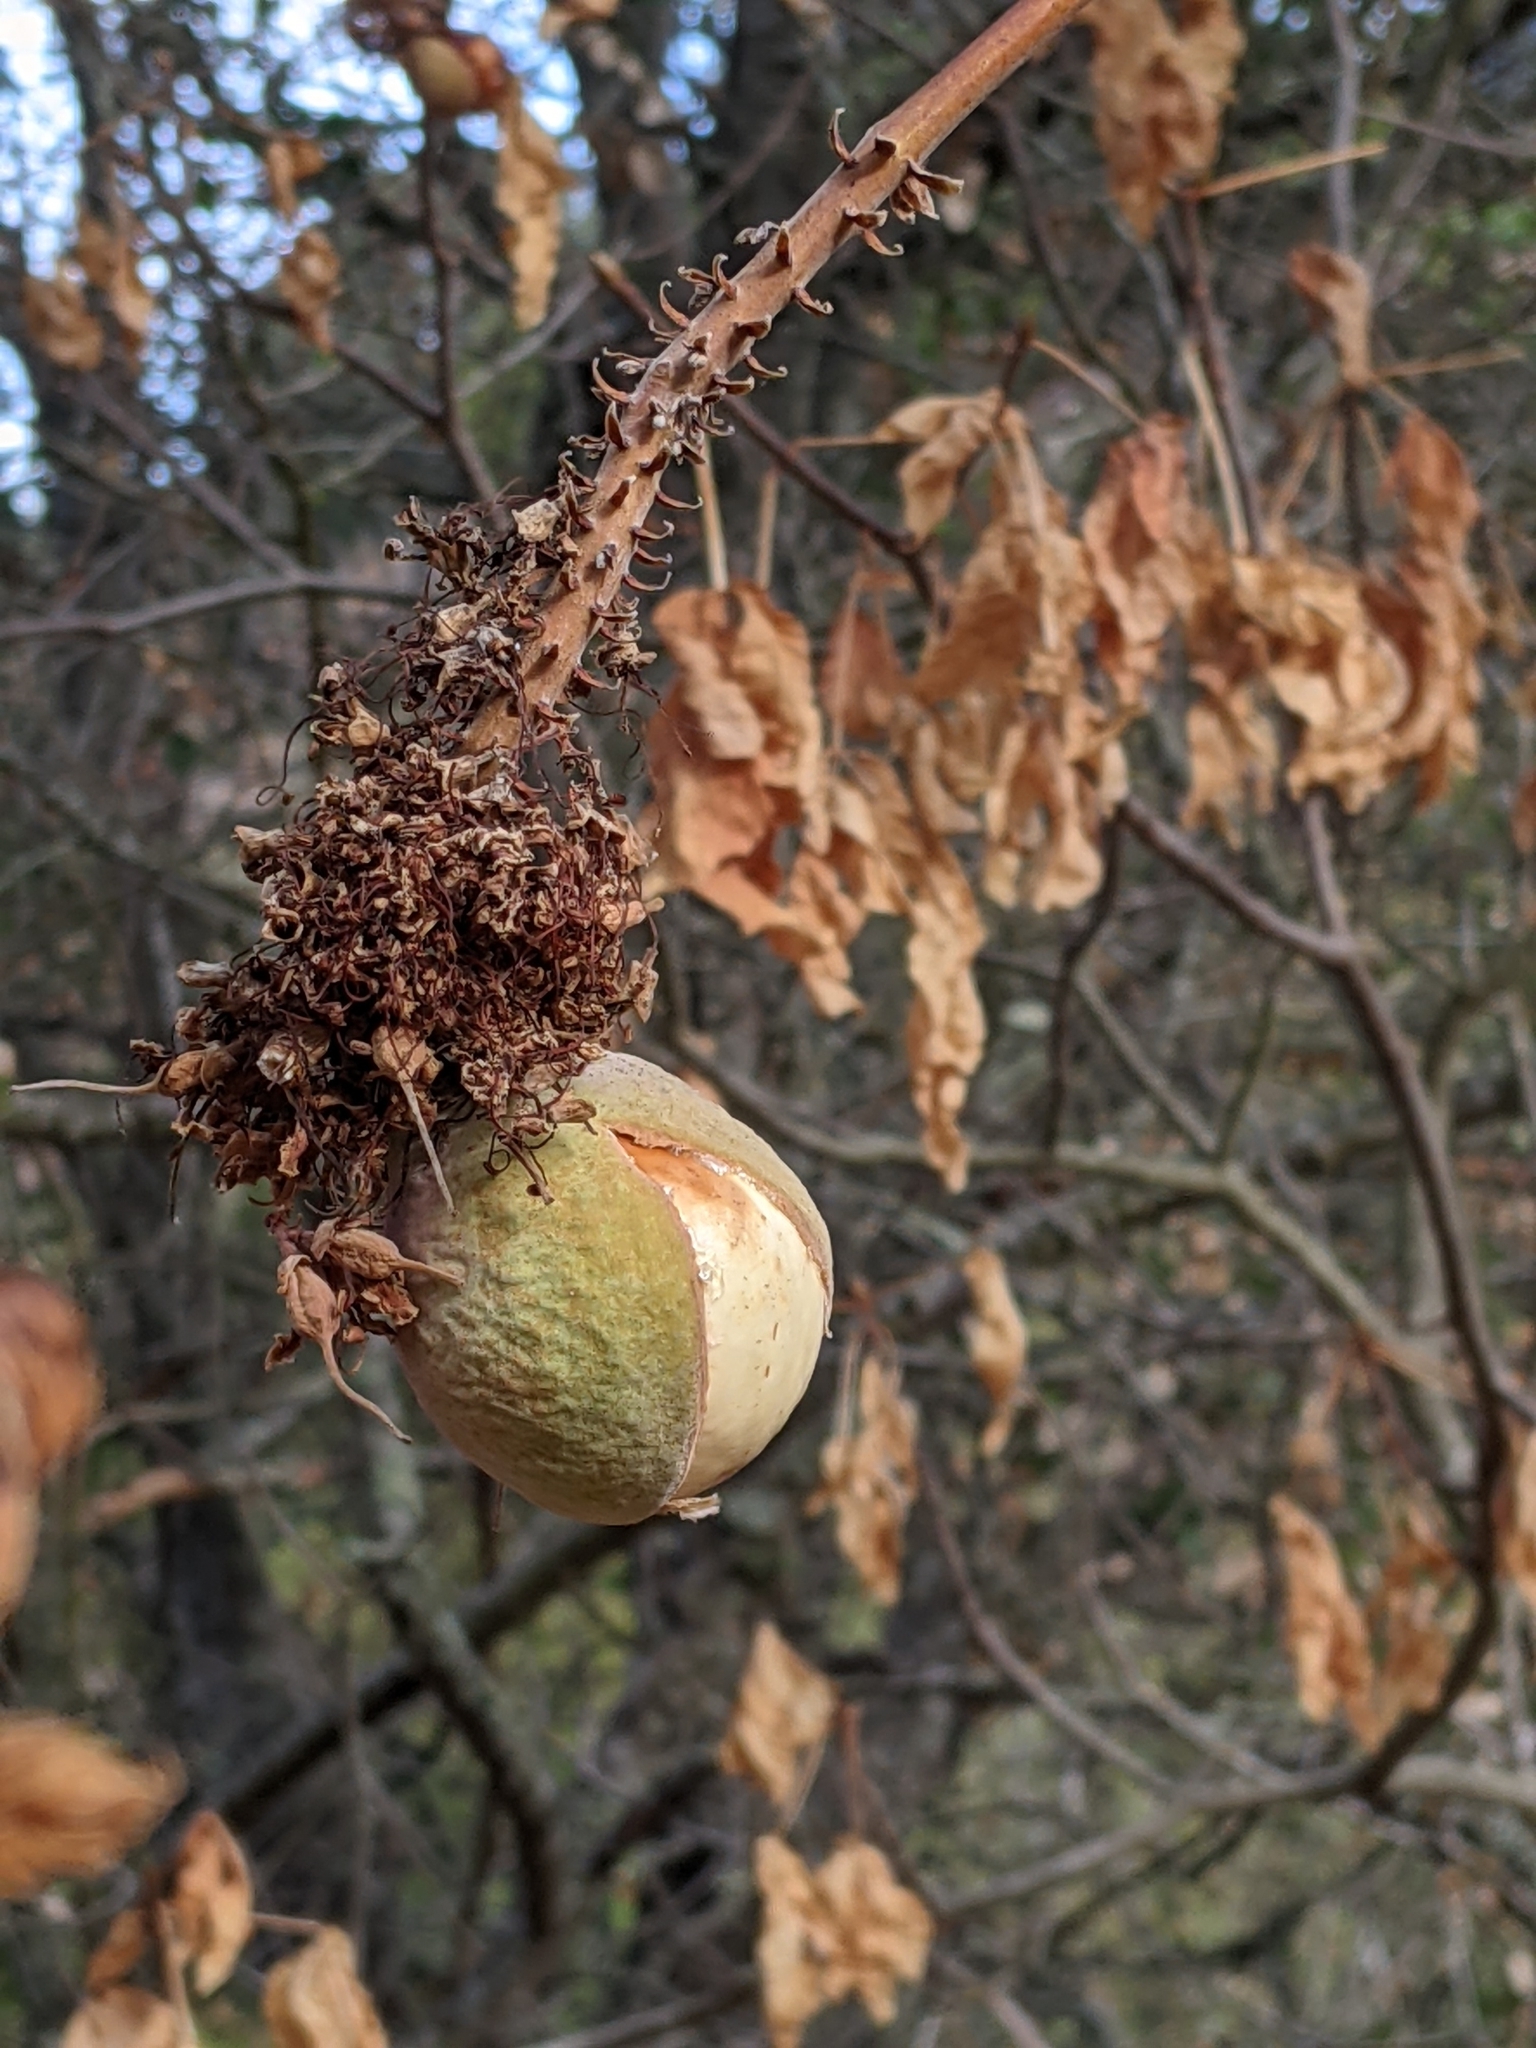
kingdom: Plantae
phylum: Tracheophyta
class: Magnoliopsida
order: Sapindales
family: Sapindaceae
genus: Aesculus
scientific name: Aesculus californica
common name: California buckeye
